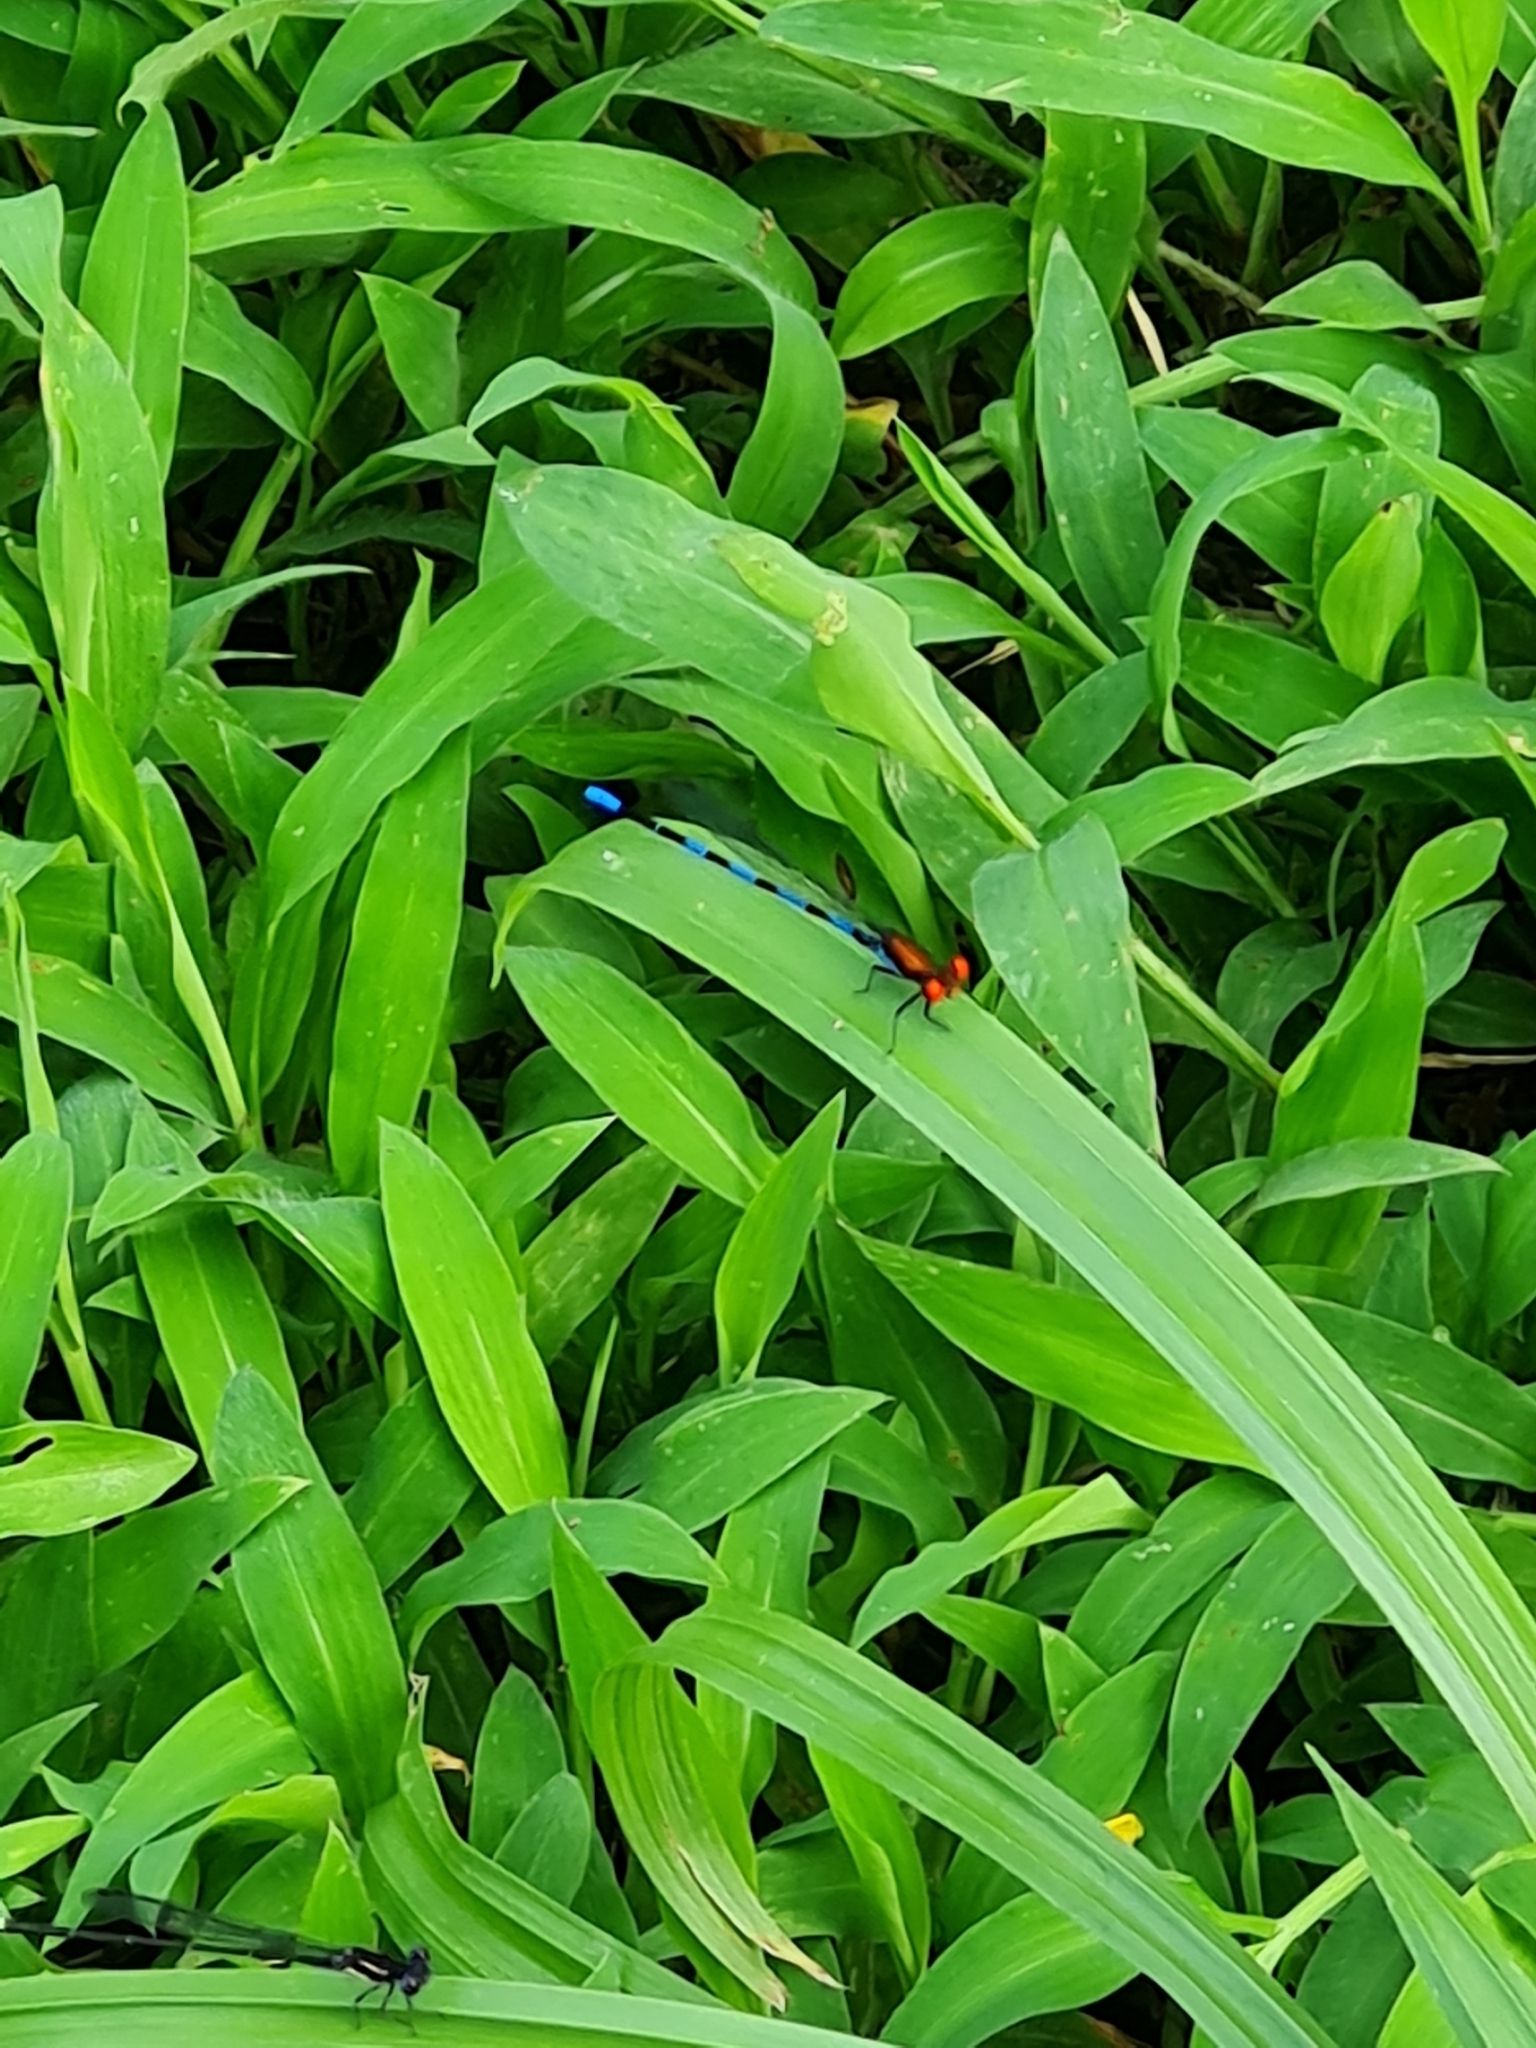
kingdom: Animalia
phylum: Arthropoda
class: Insecta
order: Odonata
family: Coenagrionidae
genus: Argia
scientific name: Argia oenea
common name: Fiery-eyed dancer
